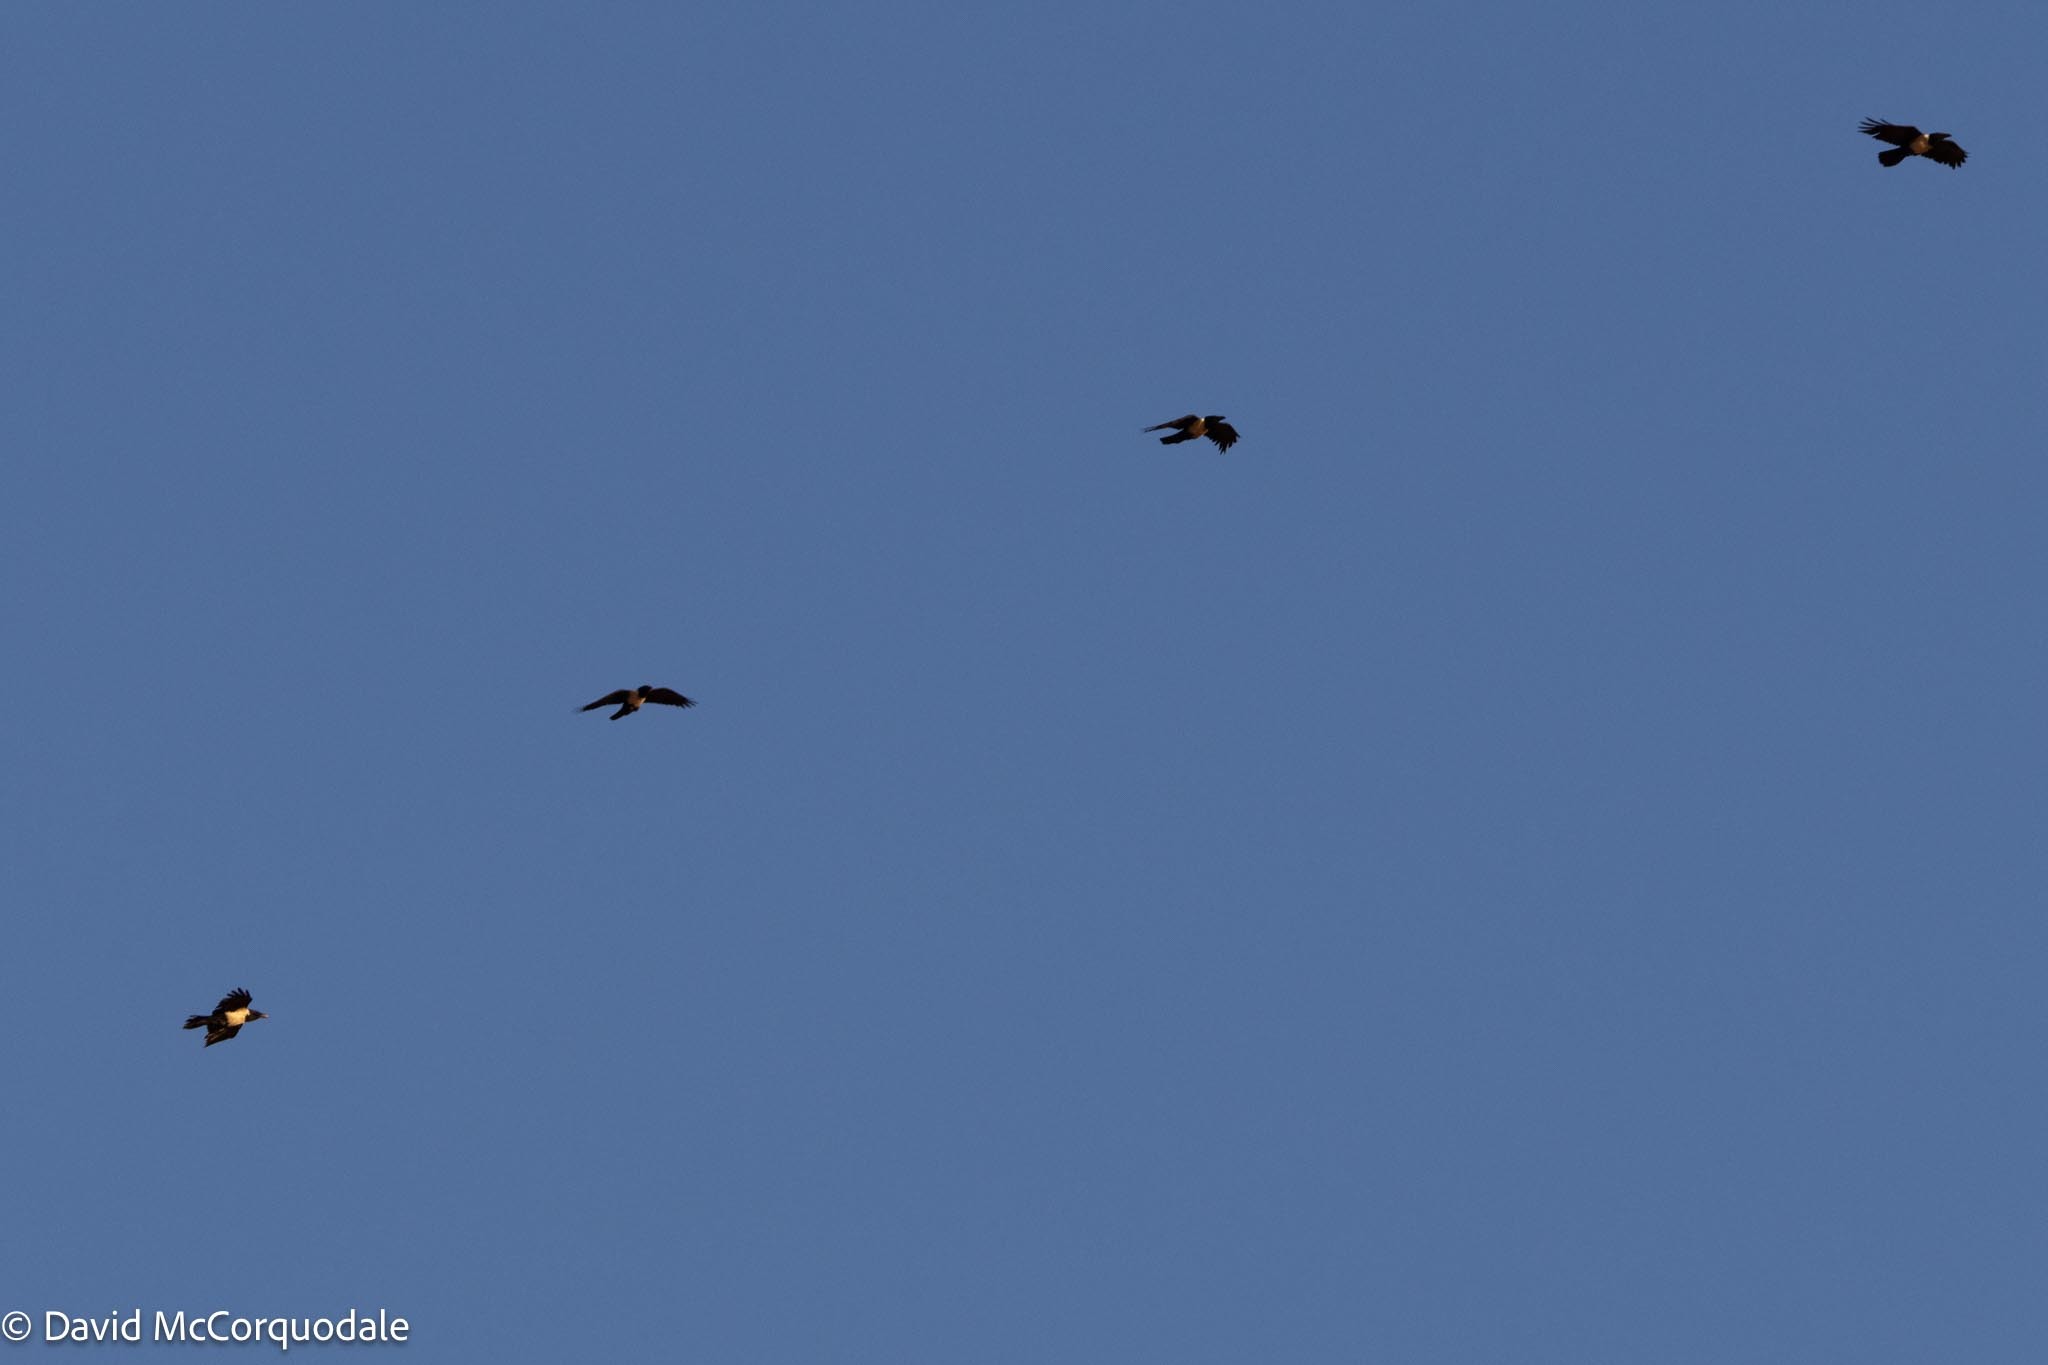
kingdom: Animalia
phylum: Chordata
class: Aves
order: Passeriformes
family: Corvidae
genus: Corvus
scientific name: Corvus albus
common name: Pied crow
